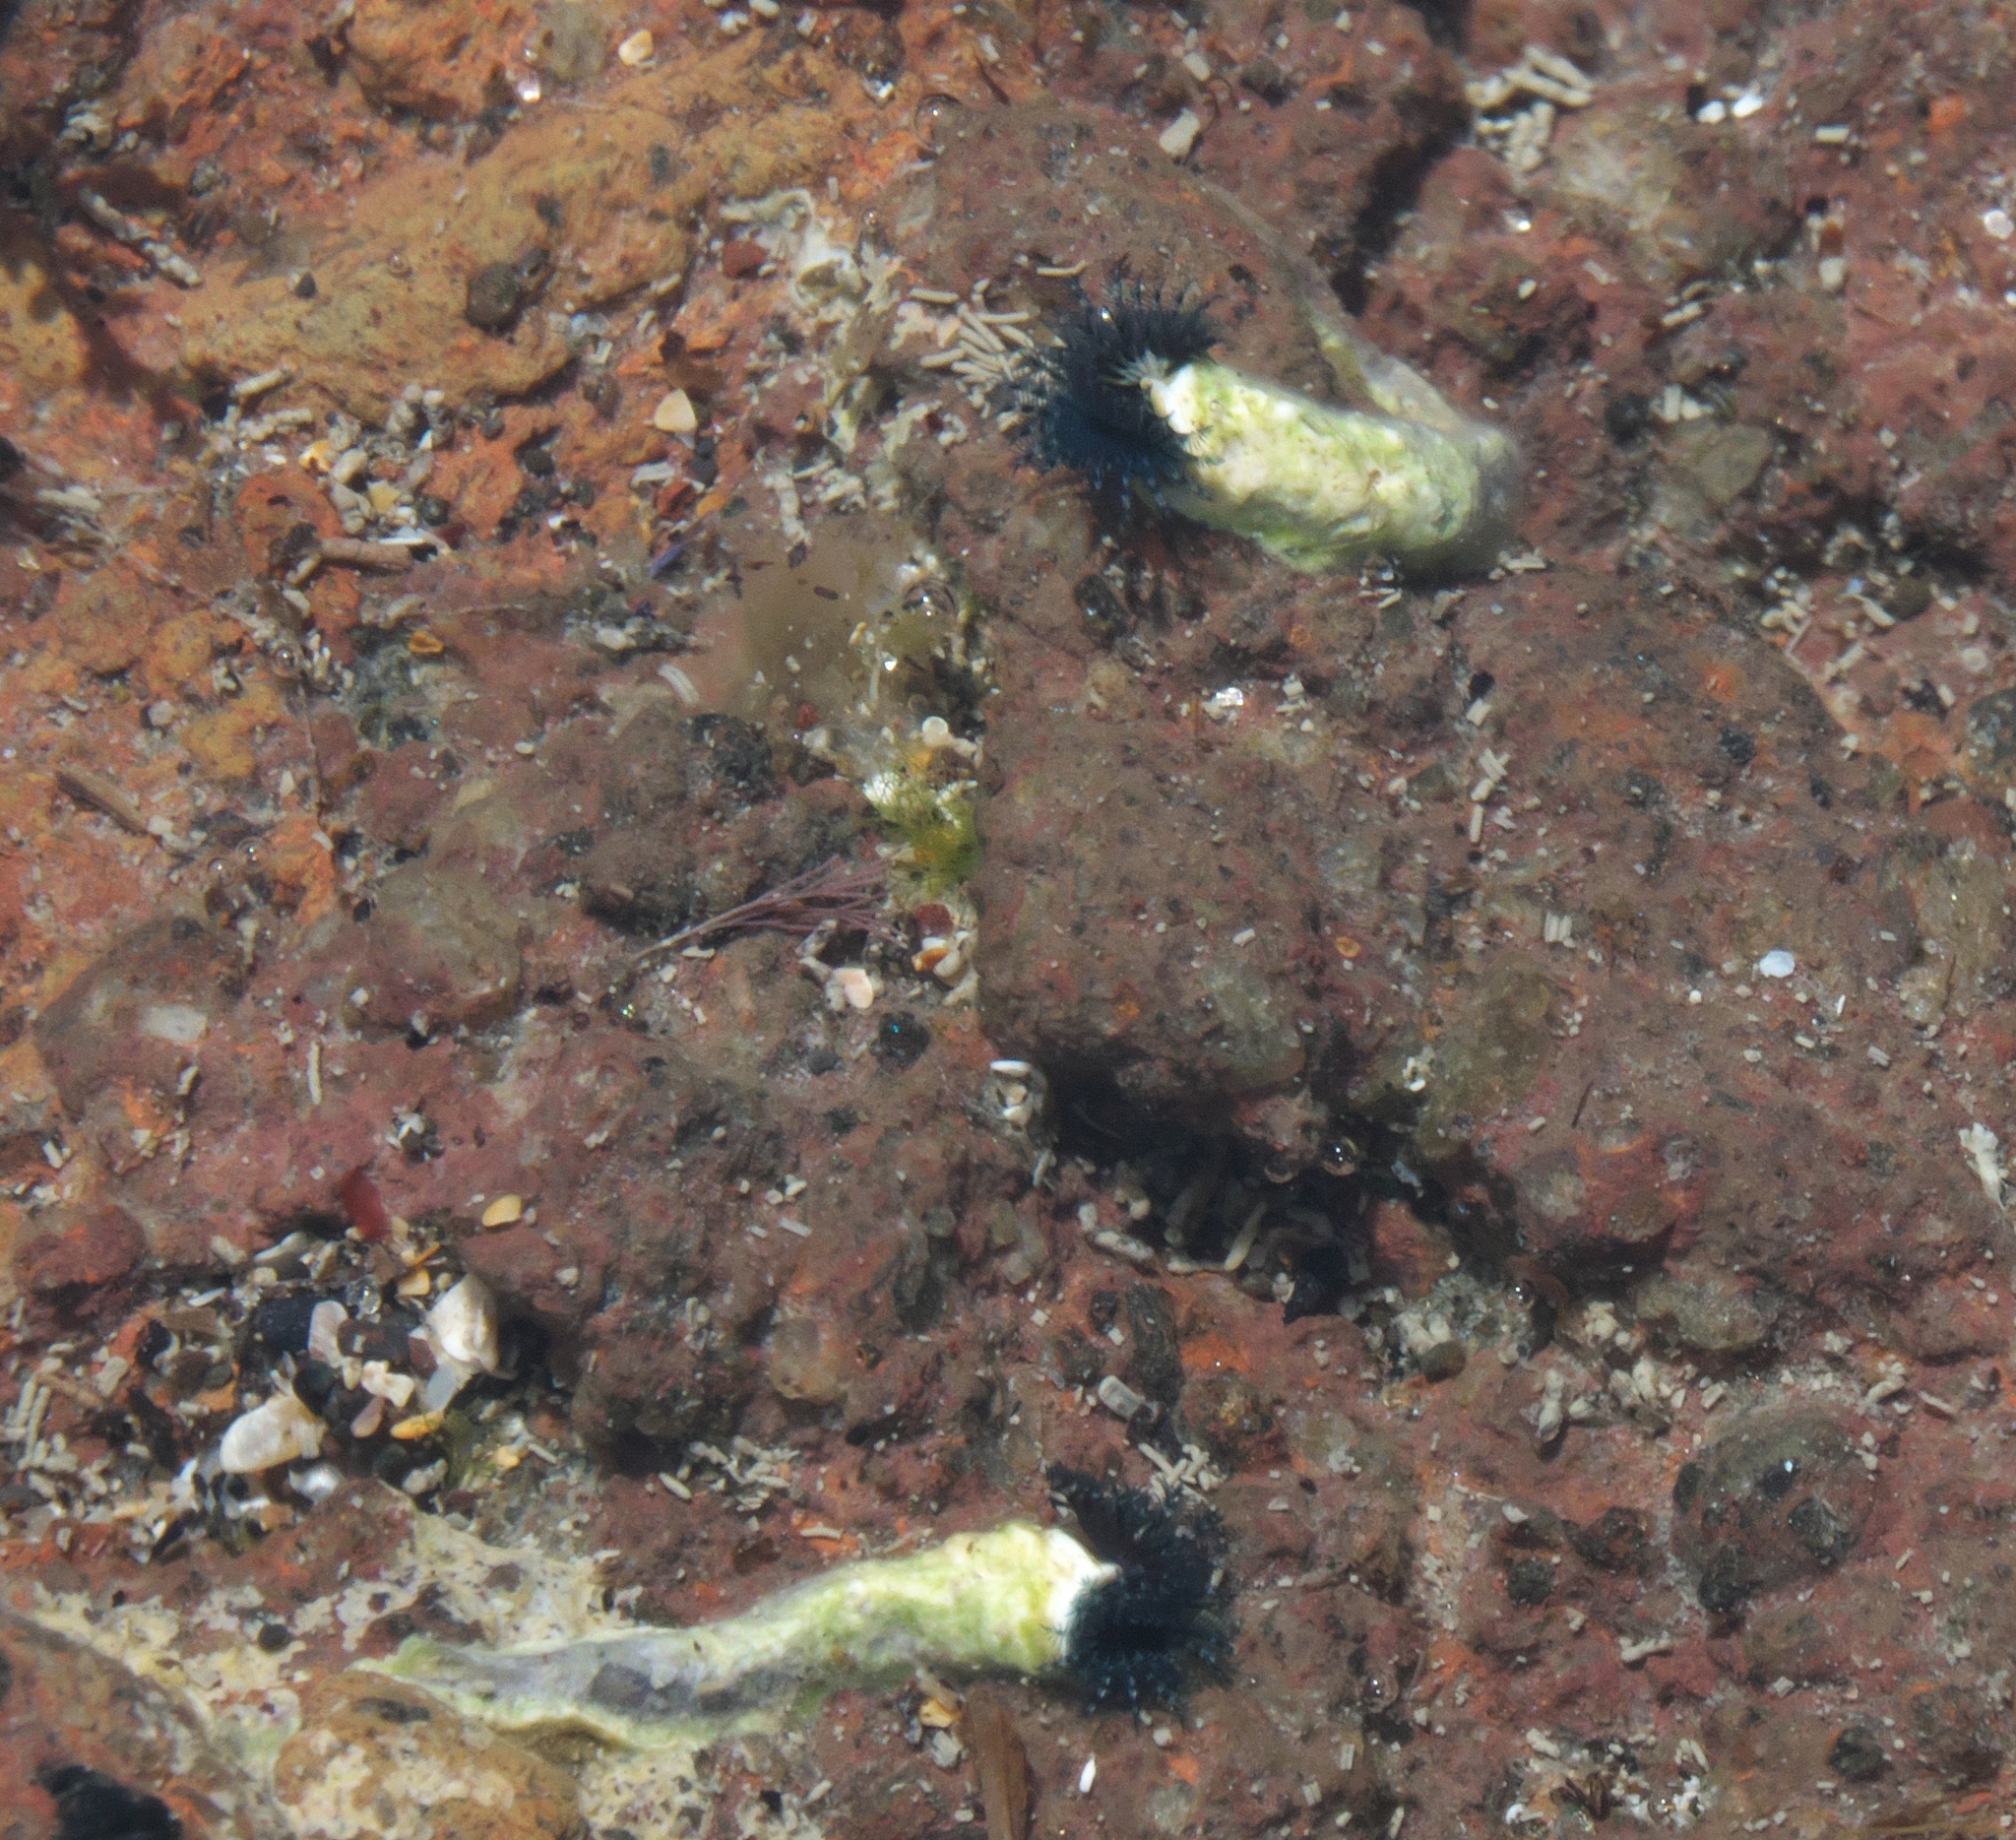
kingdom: Animalia
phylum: Annelida
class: Polychaeta
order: Sabellida
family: Serpulidae
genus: Spirobranchus
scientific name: Spirobranchus cariniferus
